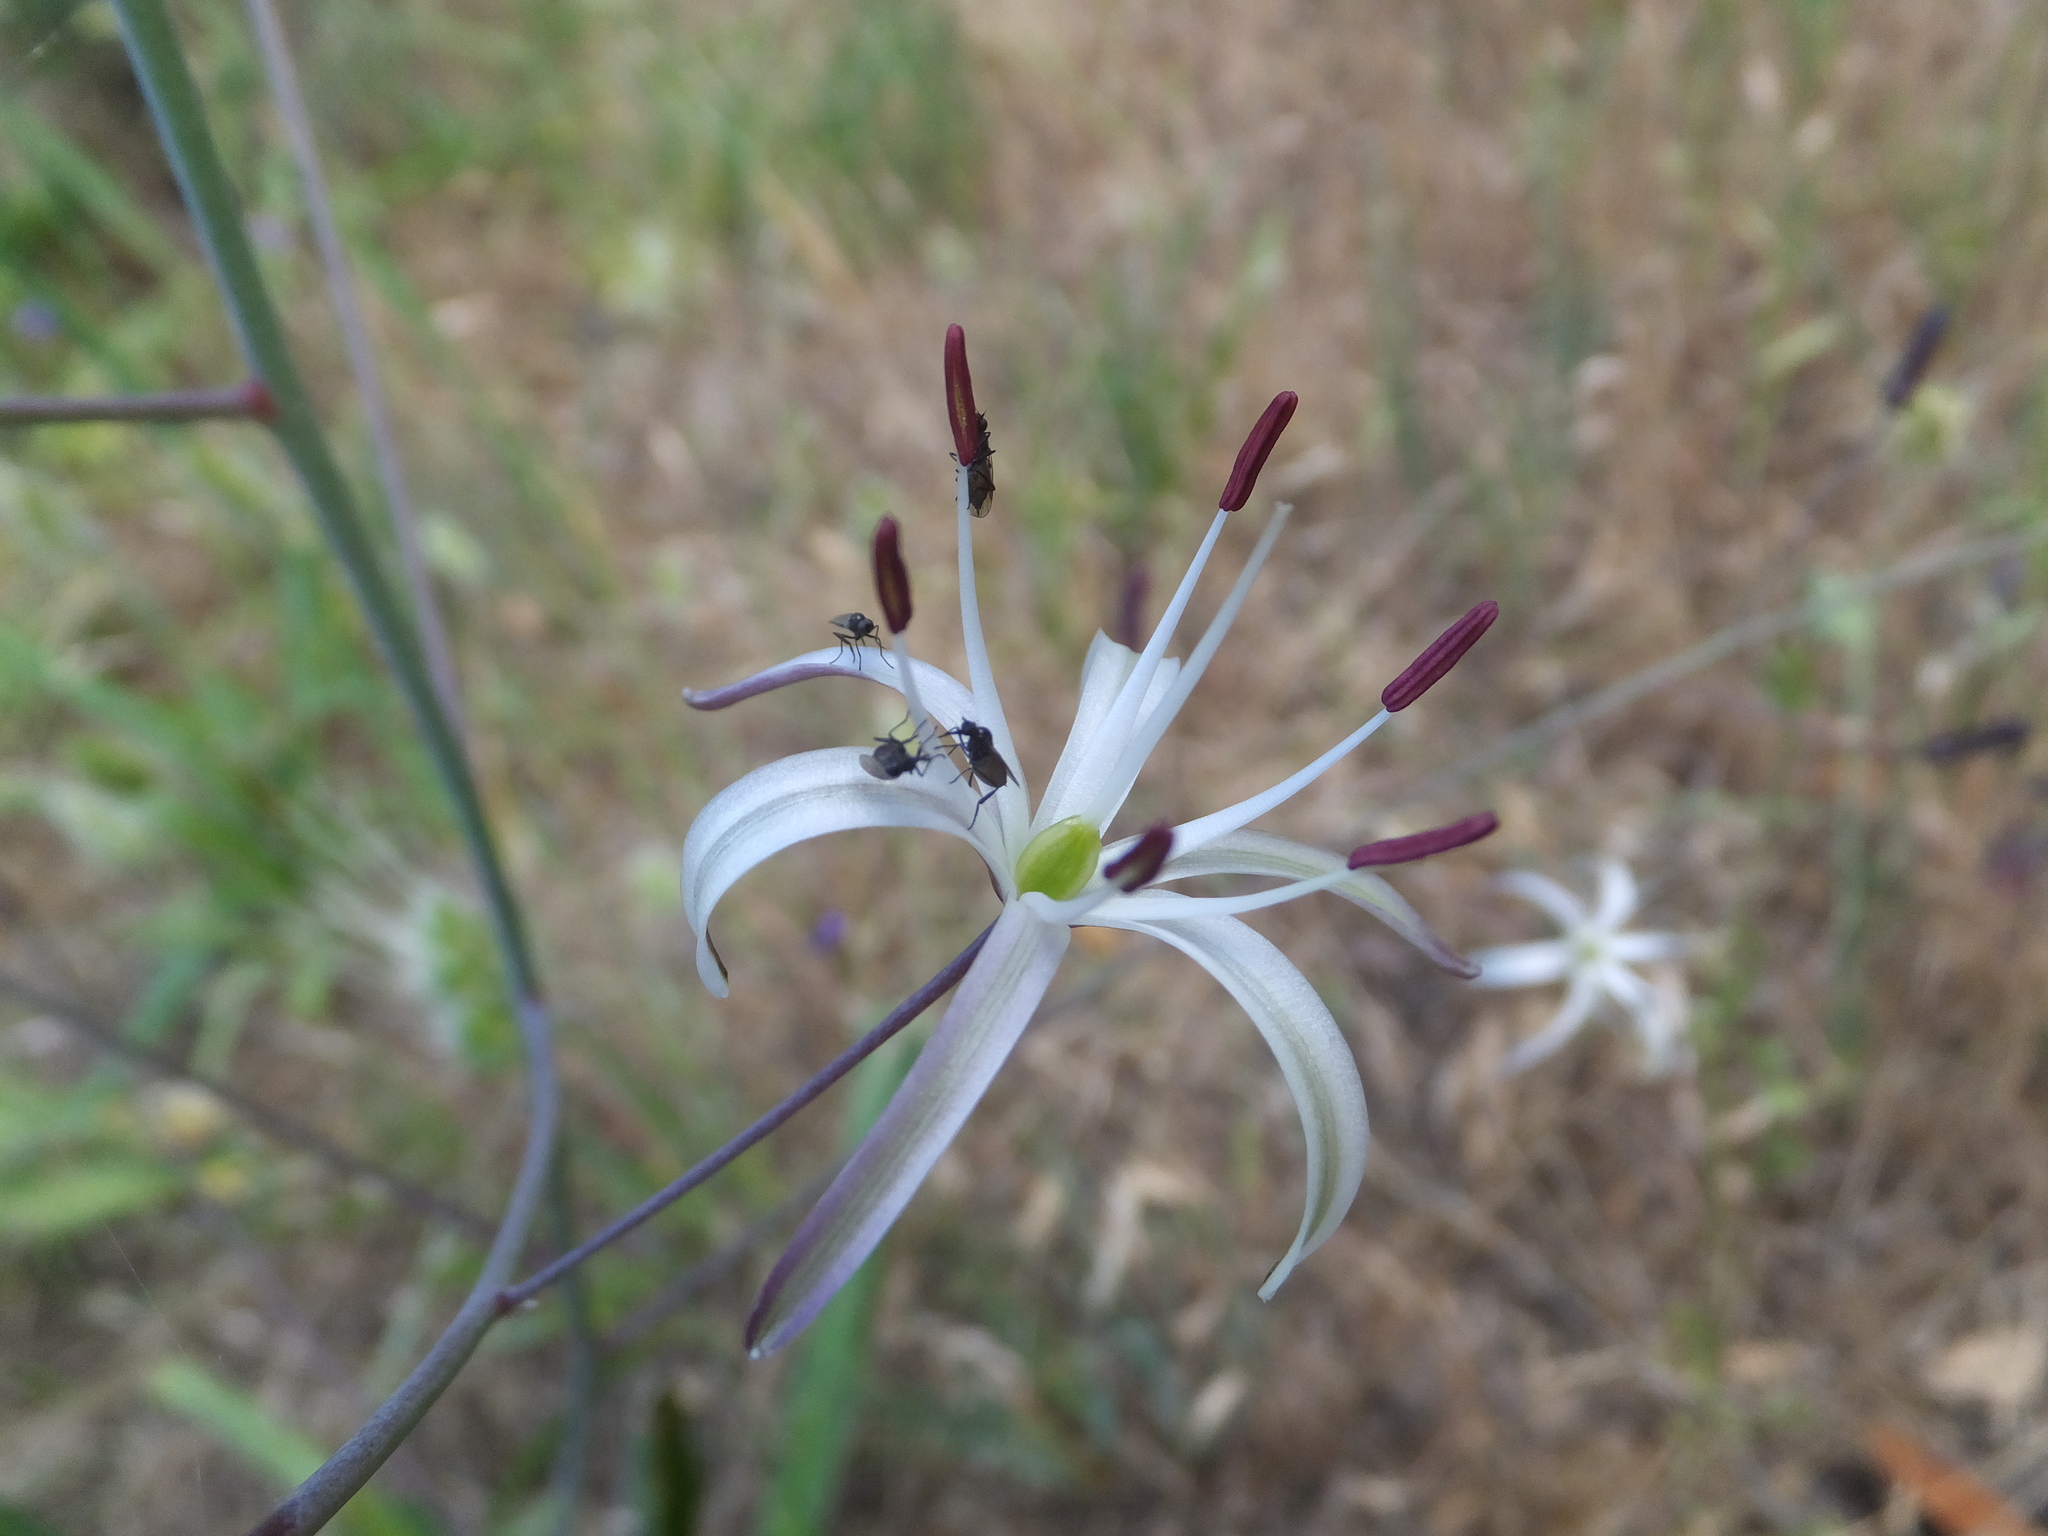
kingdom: Plantae
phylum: Tracheophyta
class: Liliopsida
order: Asparagales
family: Asparagaceae
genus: Chlorogalum
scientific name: Chlorogalum pomeridianum
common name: Amole
